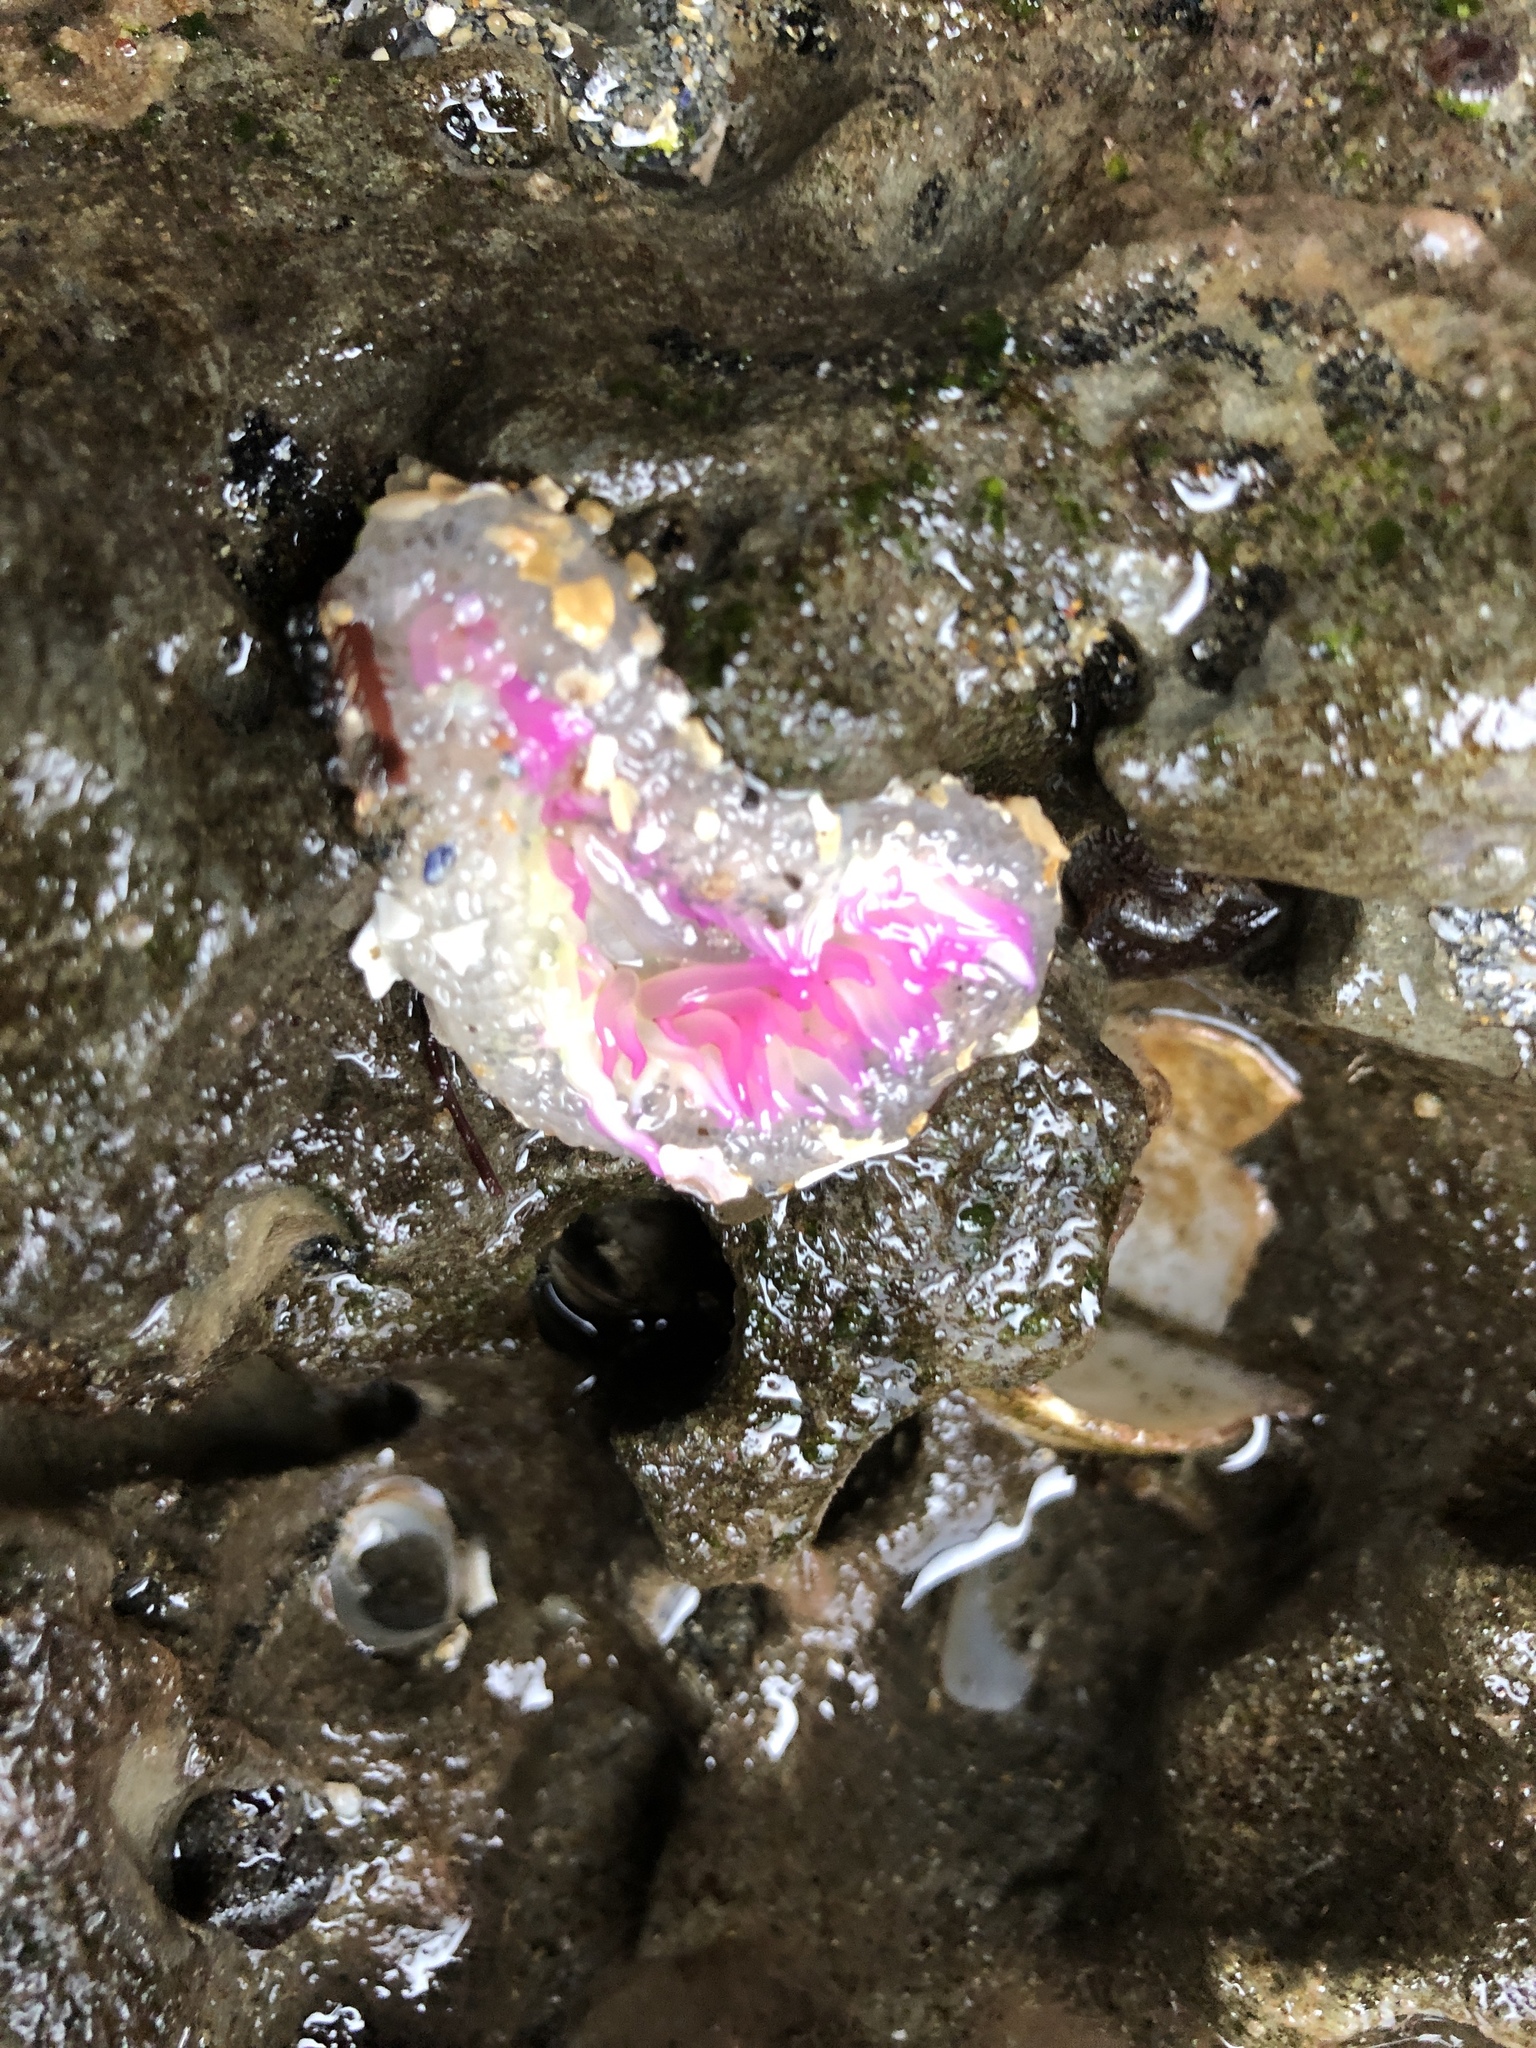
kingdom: Animalia
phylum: Cnidaria
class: Anthozoa
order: Actiniaria
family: Actiniidae
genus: Anthopleura
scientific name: Anthopleura elegantissima
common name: Clonal anemone
